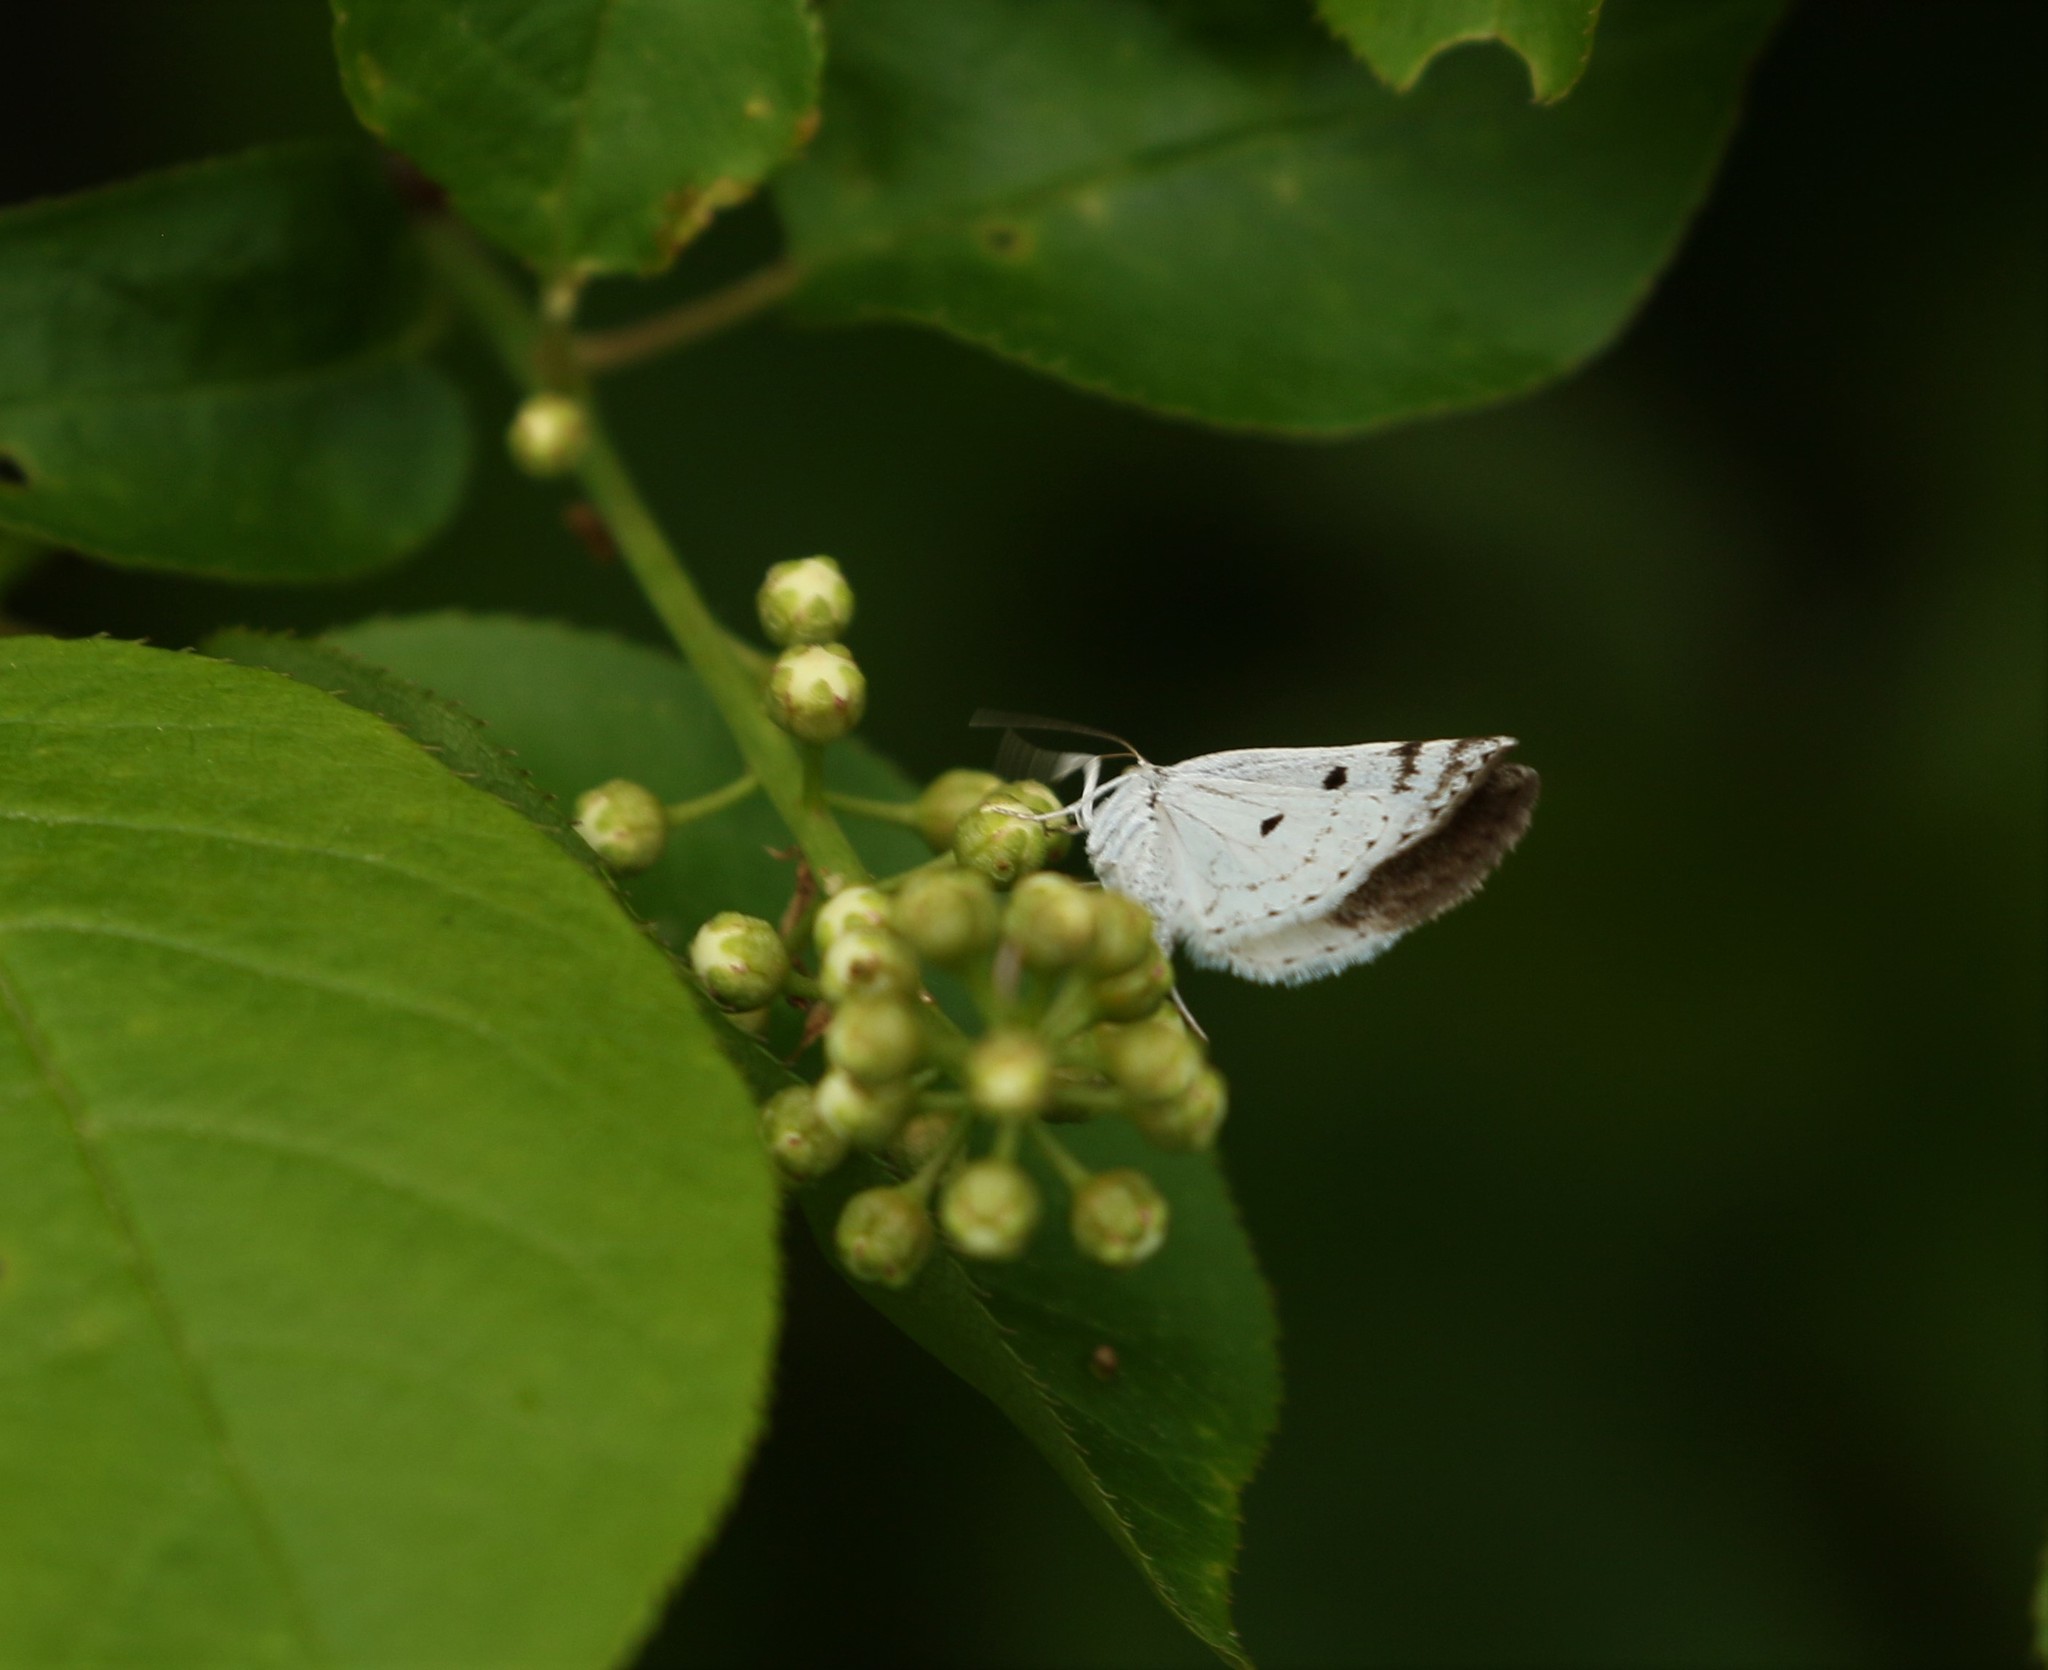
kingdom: Animalia
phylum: Arthropoda
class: Insecta
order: Lepidoptera
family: Geometridae
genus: Lomographa
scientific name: Lomographa semiclarata
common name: Bluish spring moth
